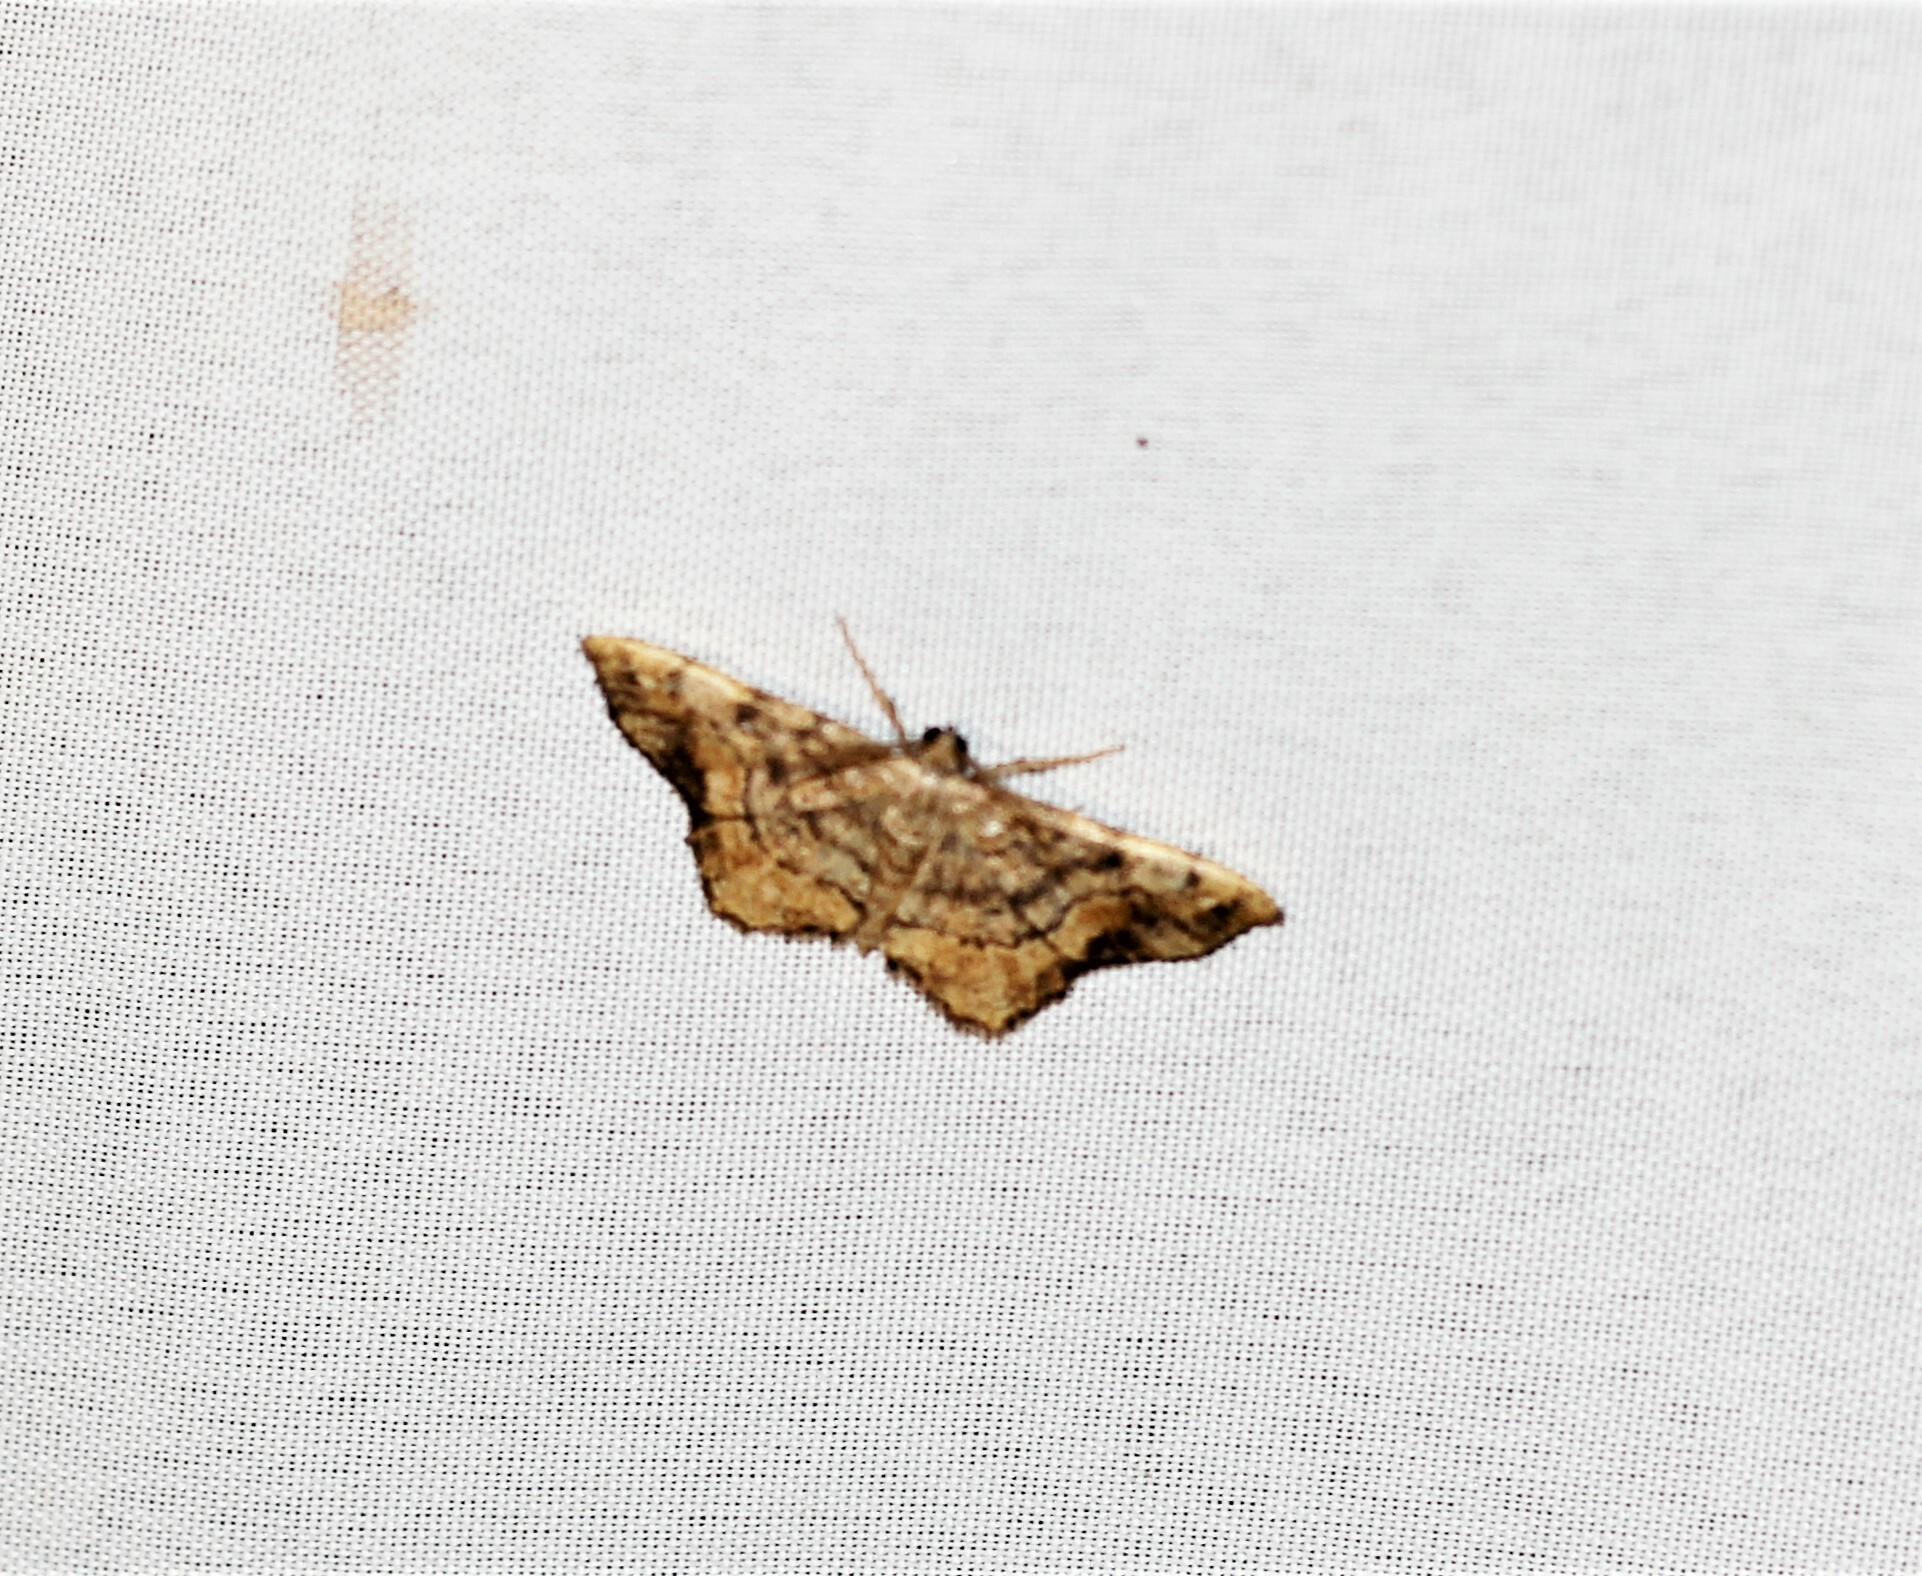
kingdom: Animalia
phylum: Arthropoda
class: Insecta
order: Lepidoptera
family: Geometridae
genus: Hypagyrtis
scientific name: Hypagyrtis unipunctata
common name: One-spotted variant
